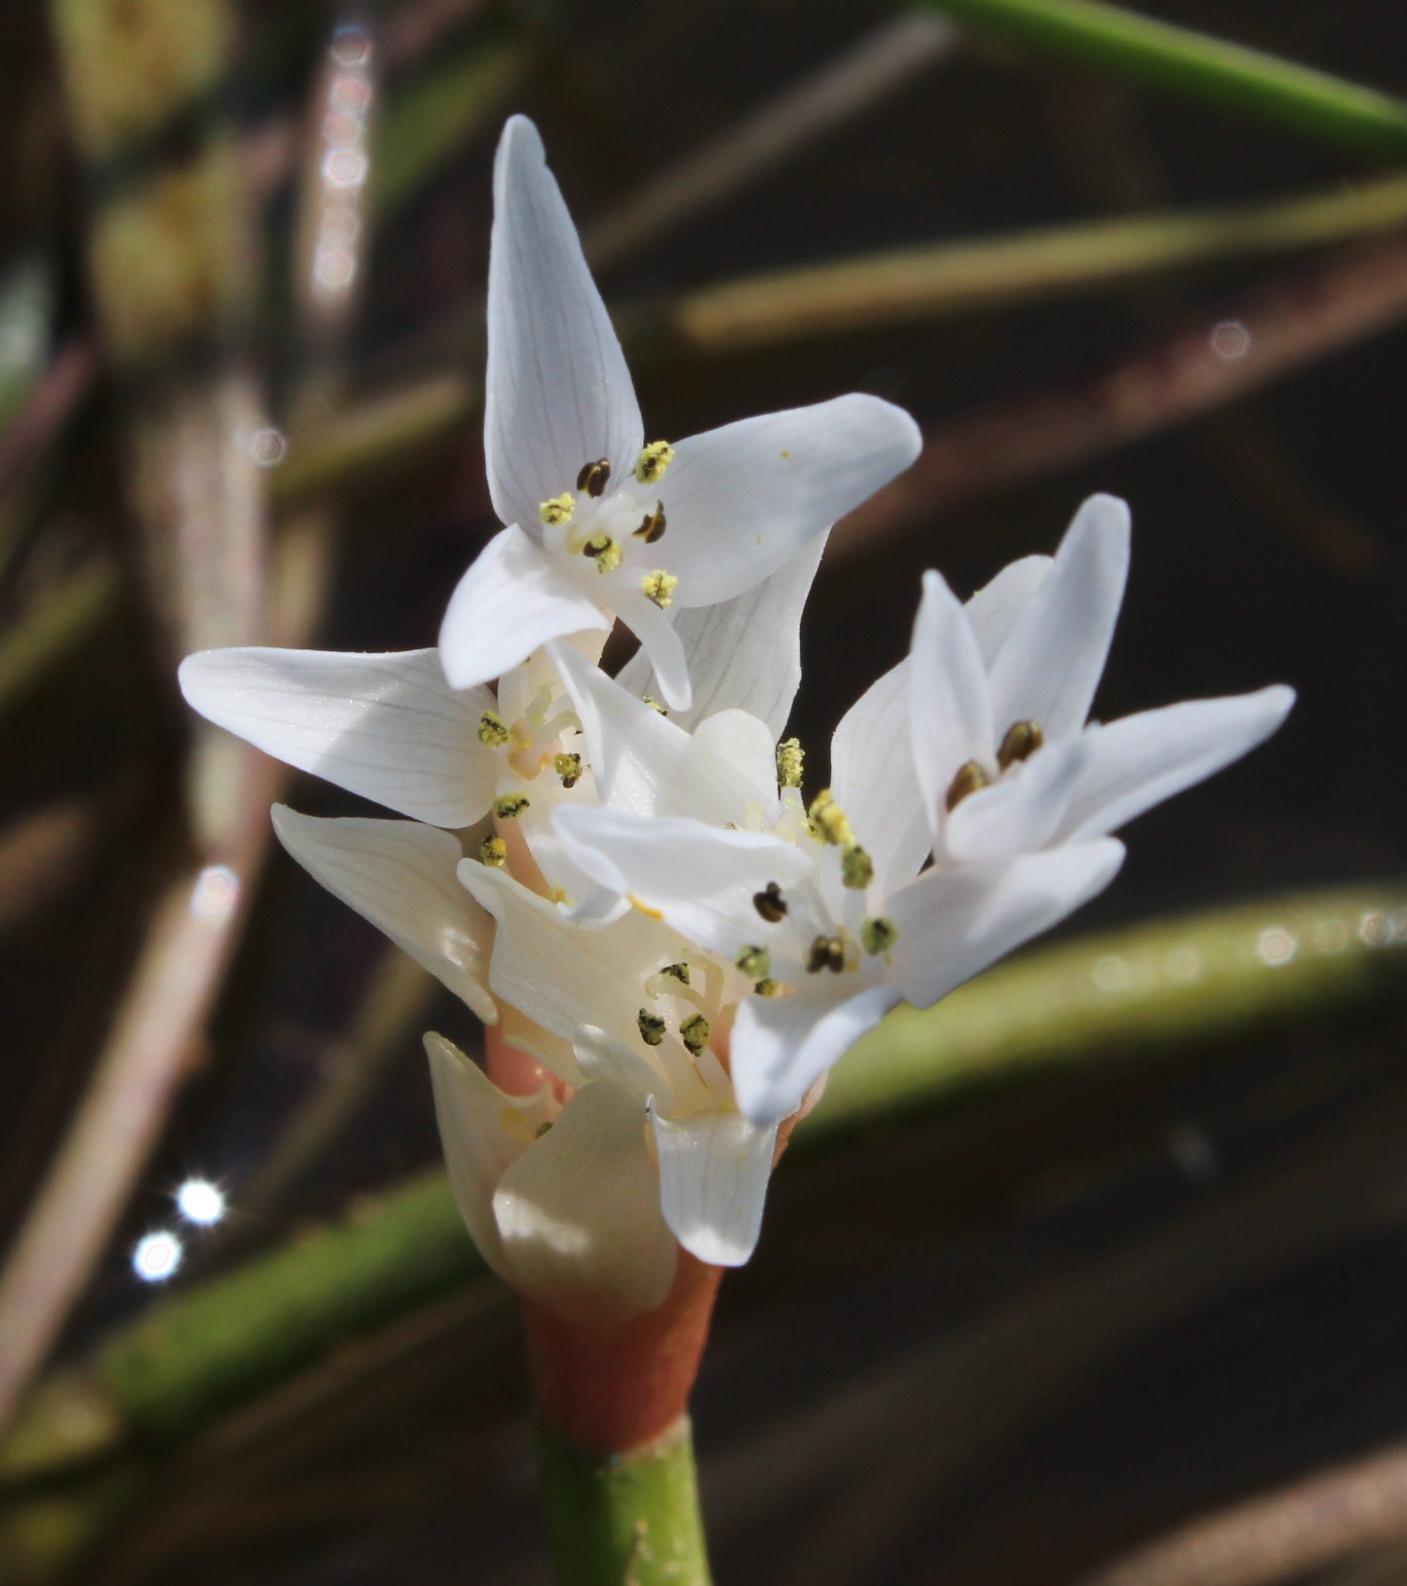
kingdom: Plantae
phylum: Tracheophyta
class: Liliopsida
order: Alismatales
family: Aponogetonaceae
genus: Aponogeton
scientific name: Aponogeton distachyos
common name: Cape-pondweed
